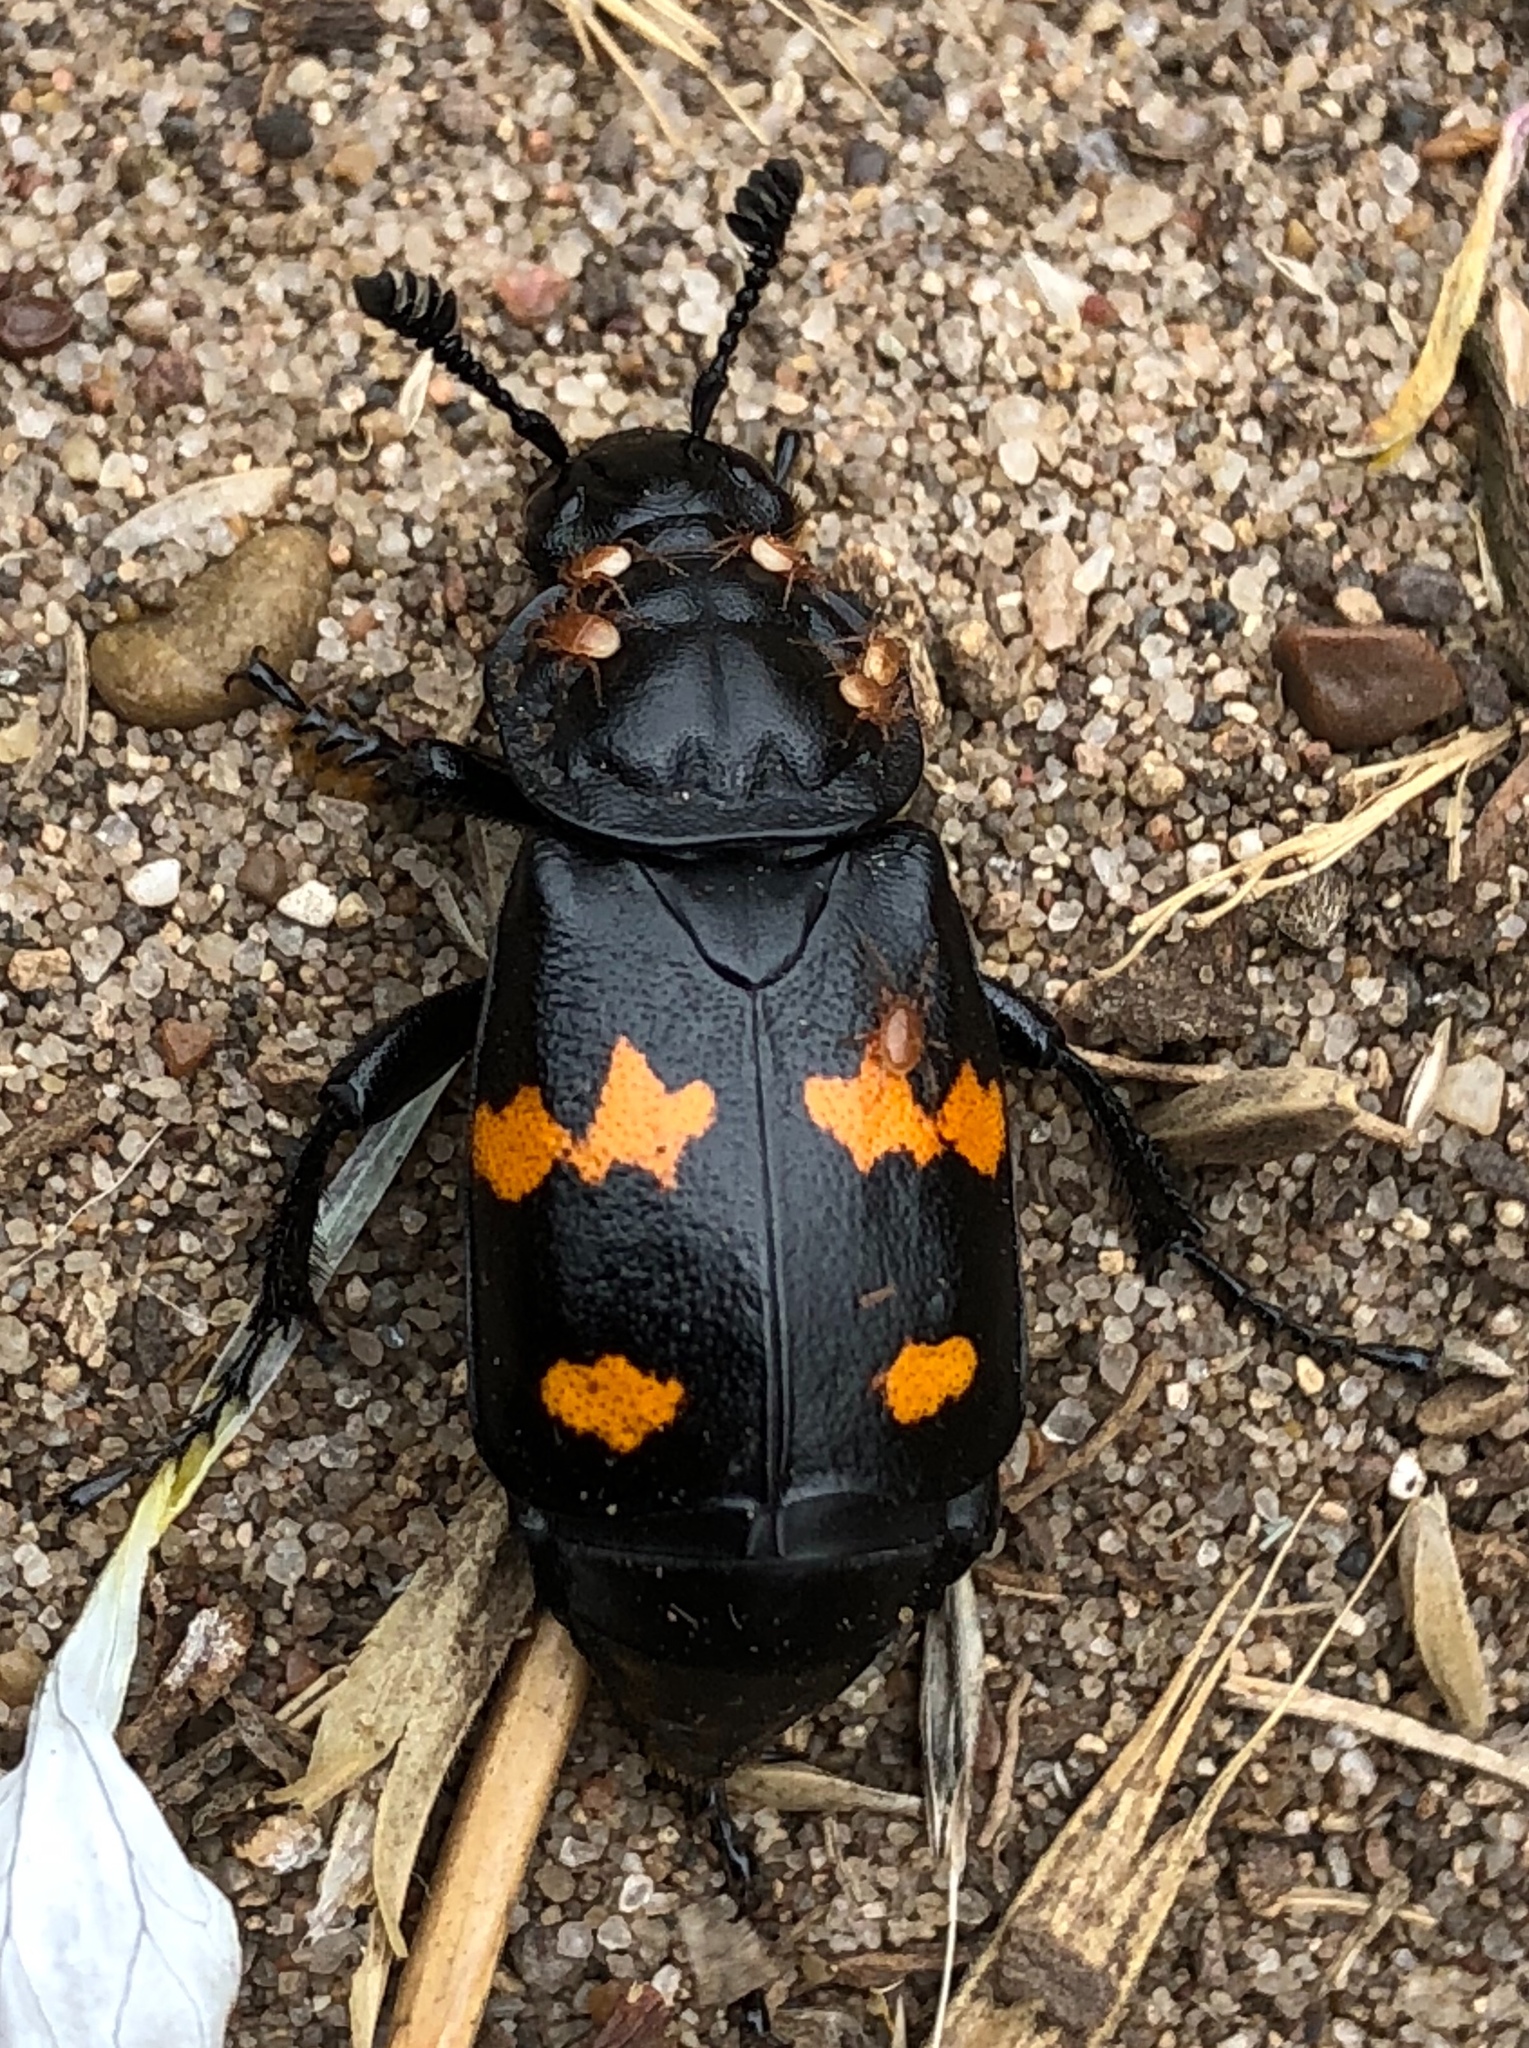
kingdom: Animalia
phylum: Arthropoda
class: Insecta
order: Coleoptera
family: Staphylinidae
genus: Nicrophorus
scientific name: Nicrophorus defodiens
